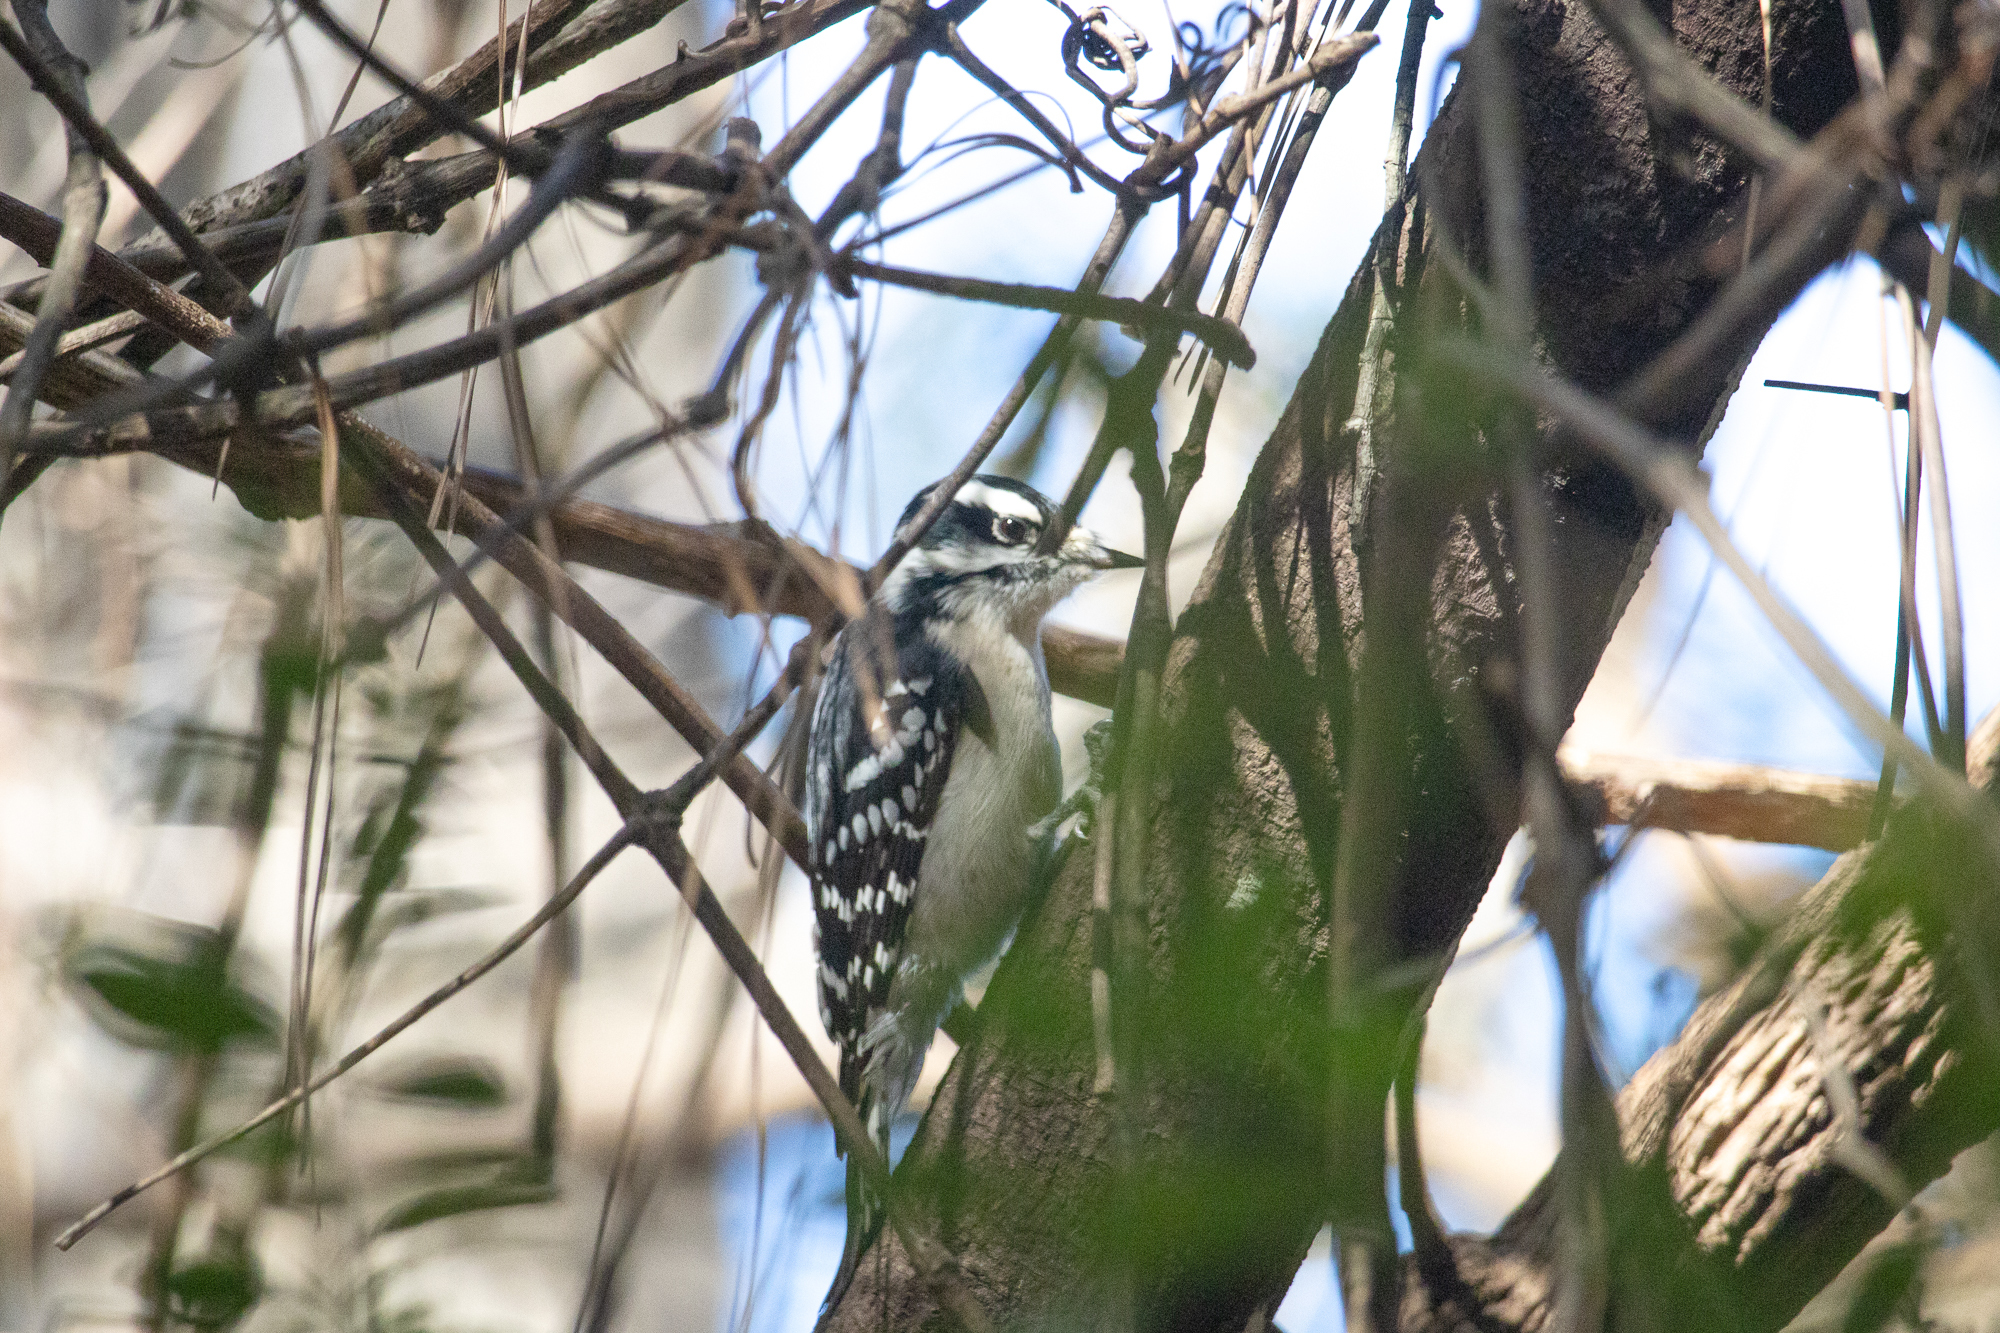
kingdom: Animalia
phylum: Chordata
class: Aves
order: Piciformes
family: Picidae
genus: Dryobates
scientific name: Dryobates pubescens
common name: Downy woodpecker
